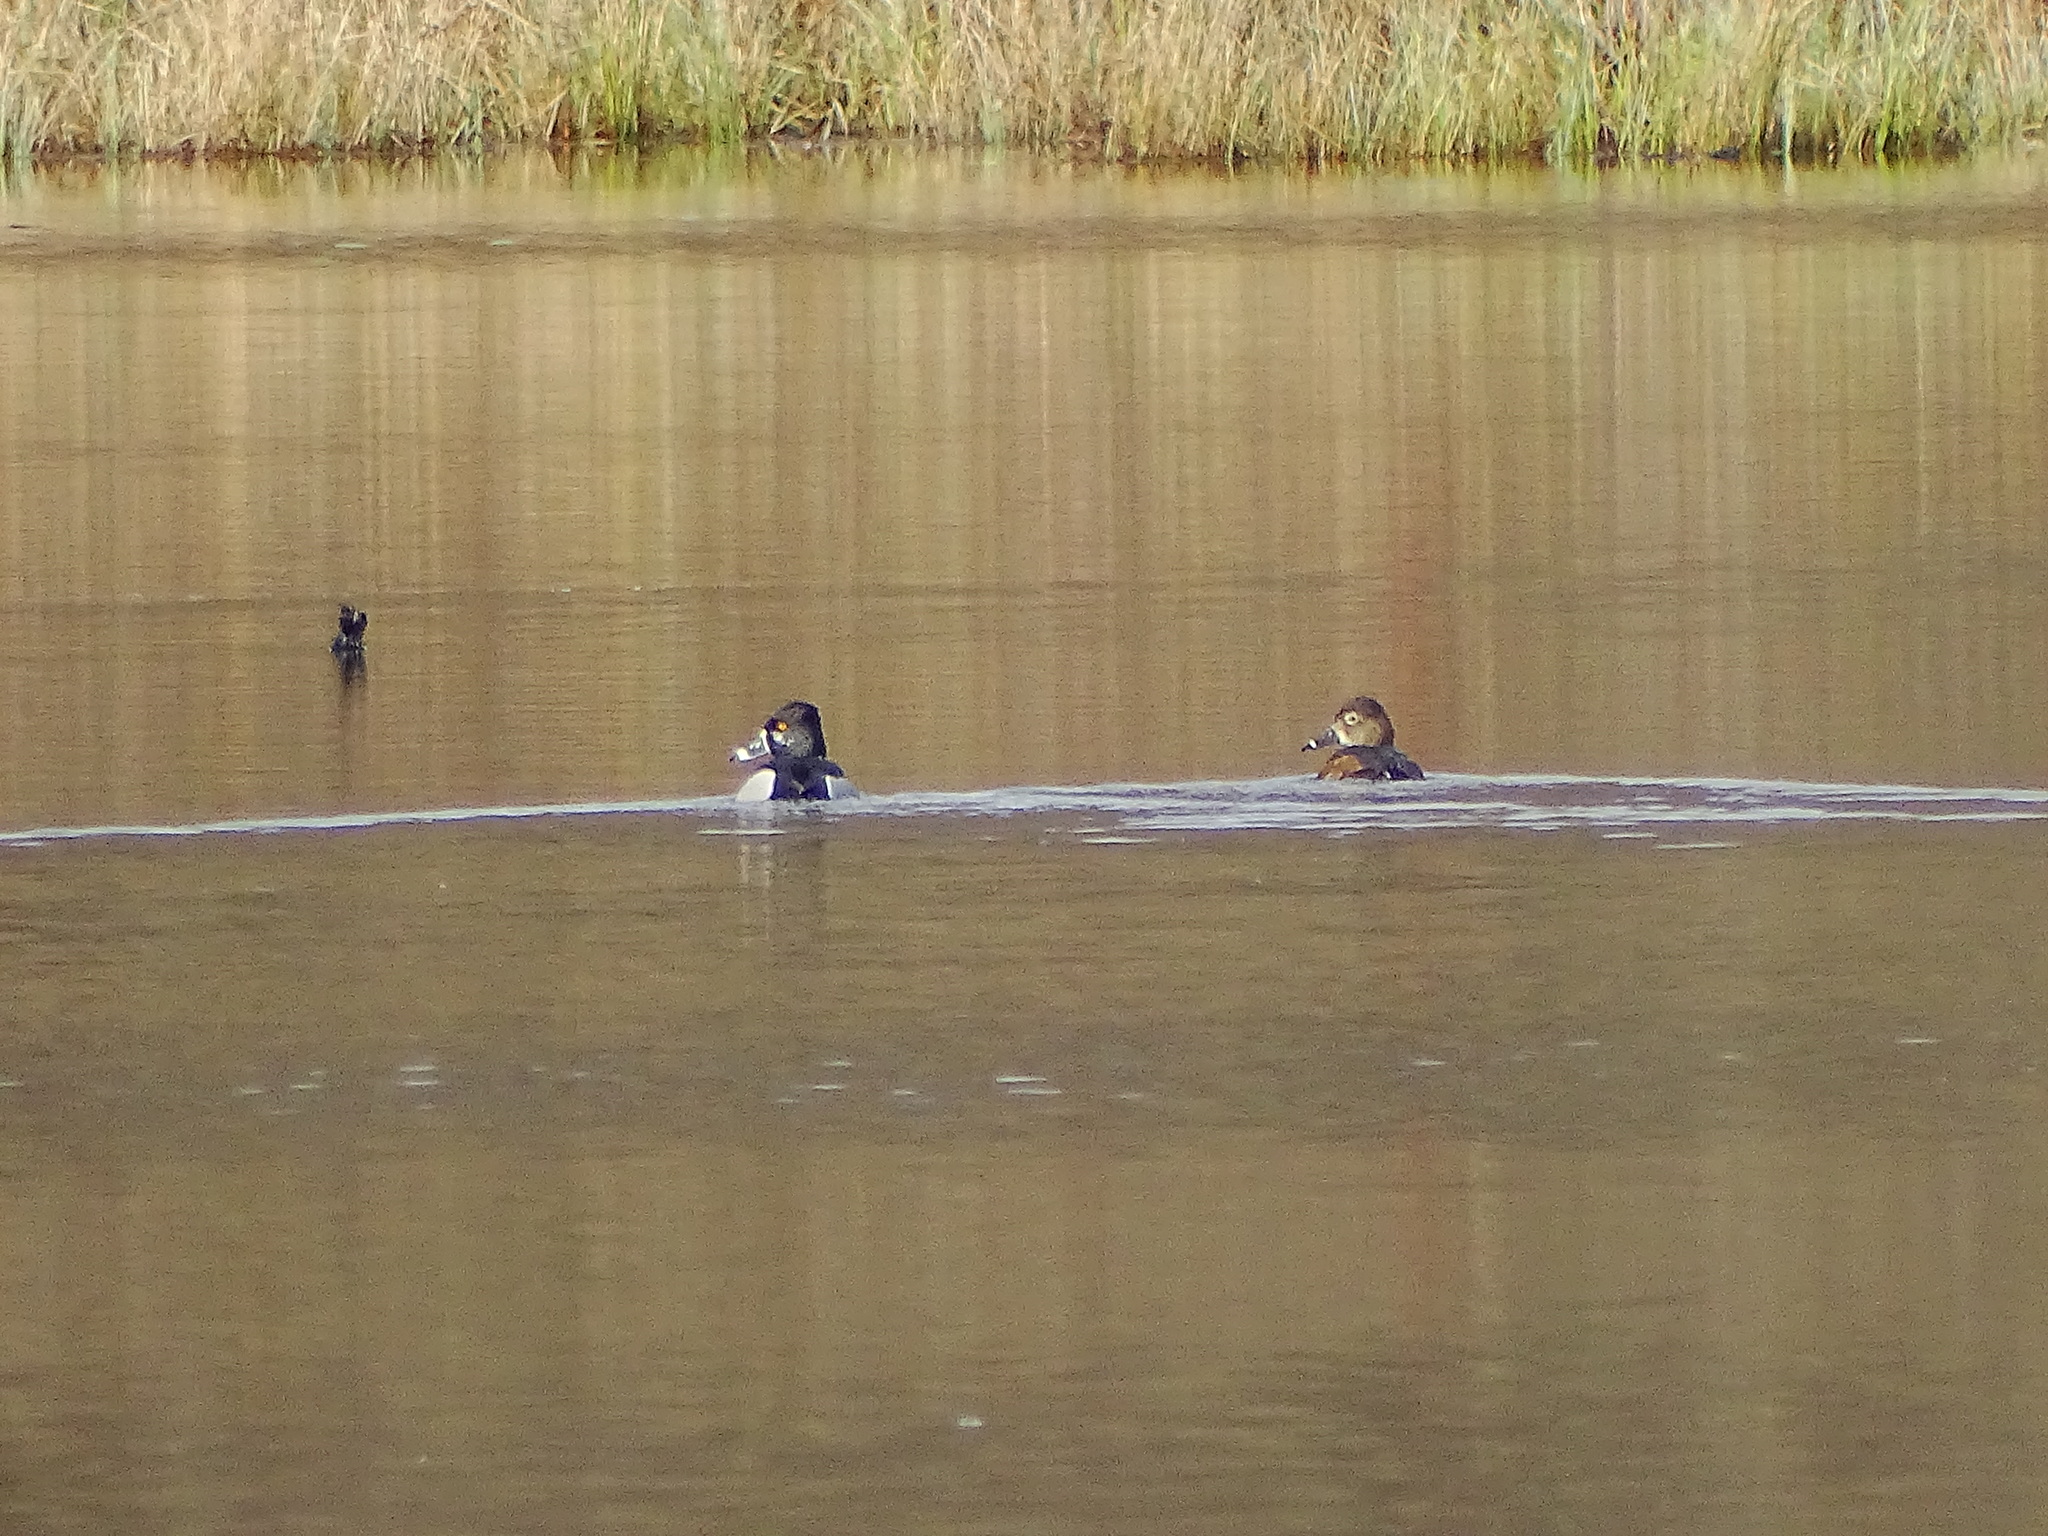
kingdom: Animalia
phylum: Chordata
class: Aves
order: Anseriformes
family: Anatidae
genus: Aythya
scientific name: Aythya collaris
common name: Ring-necked duck
